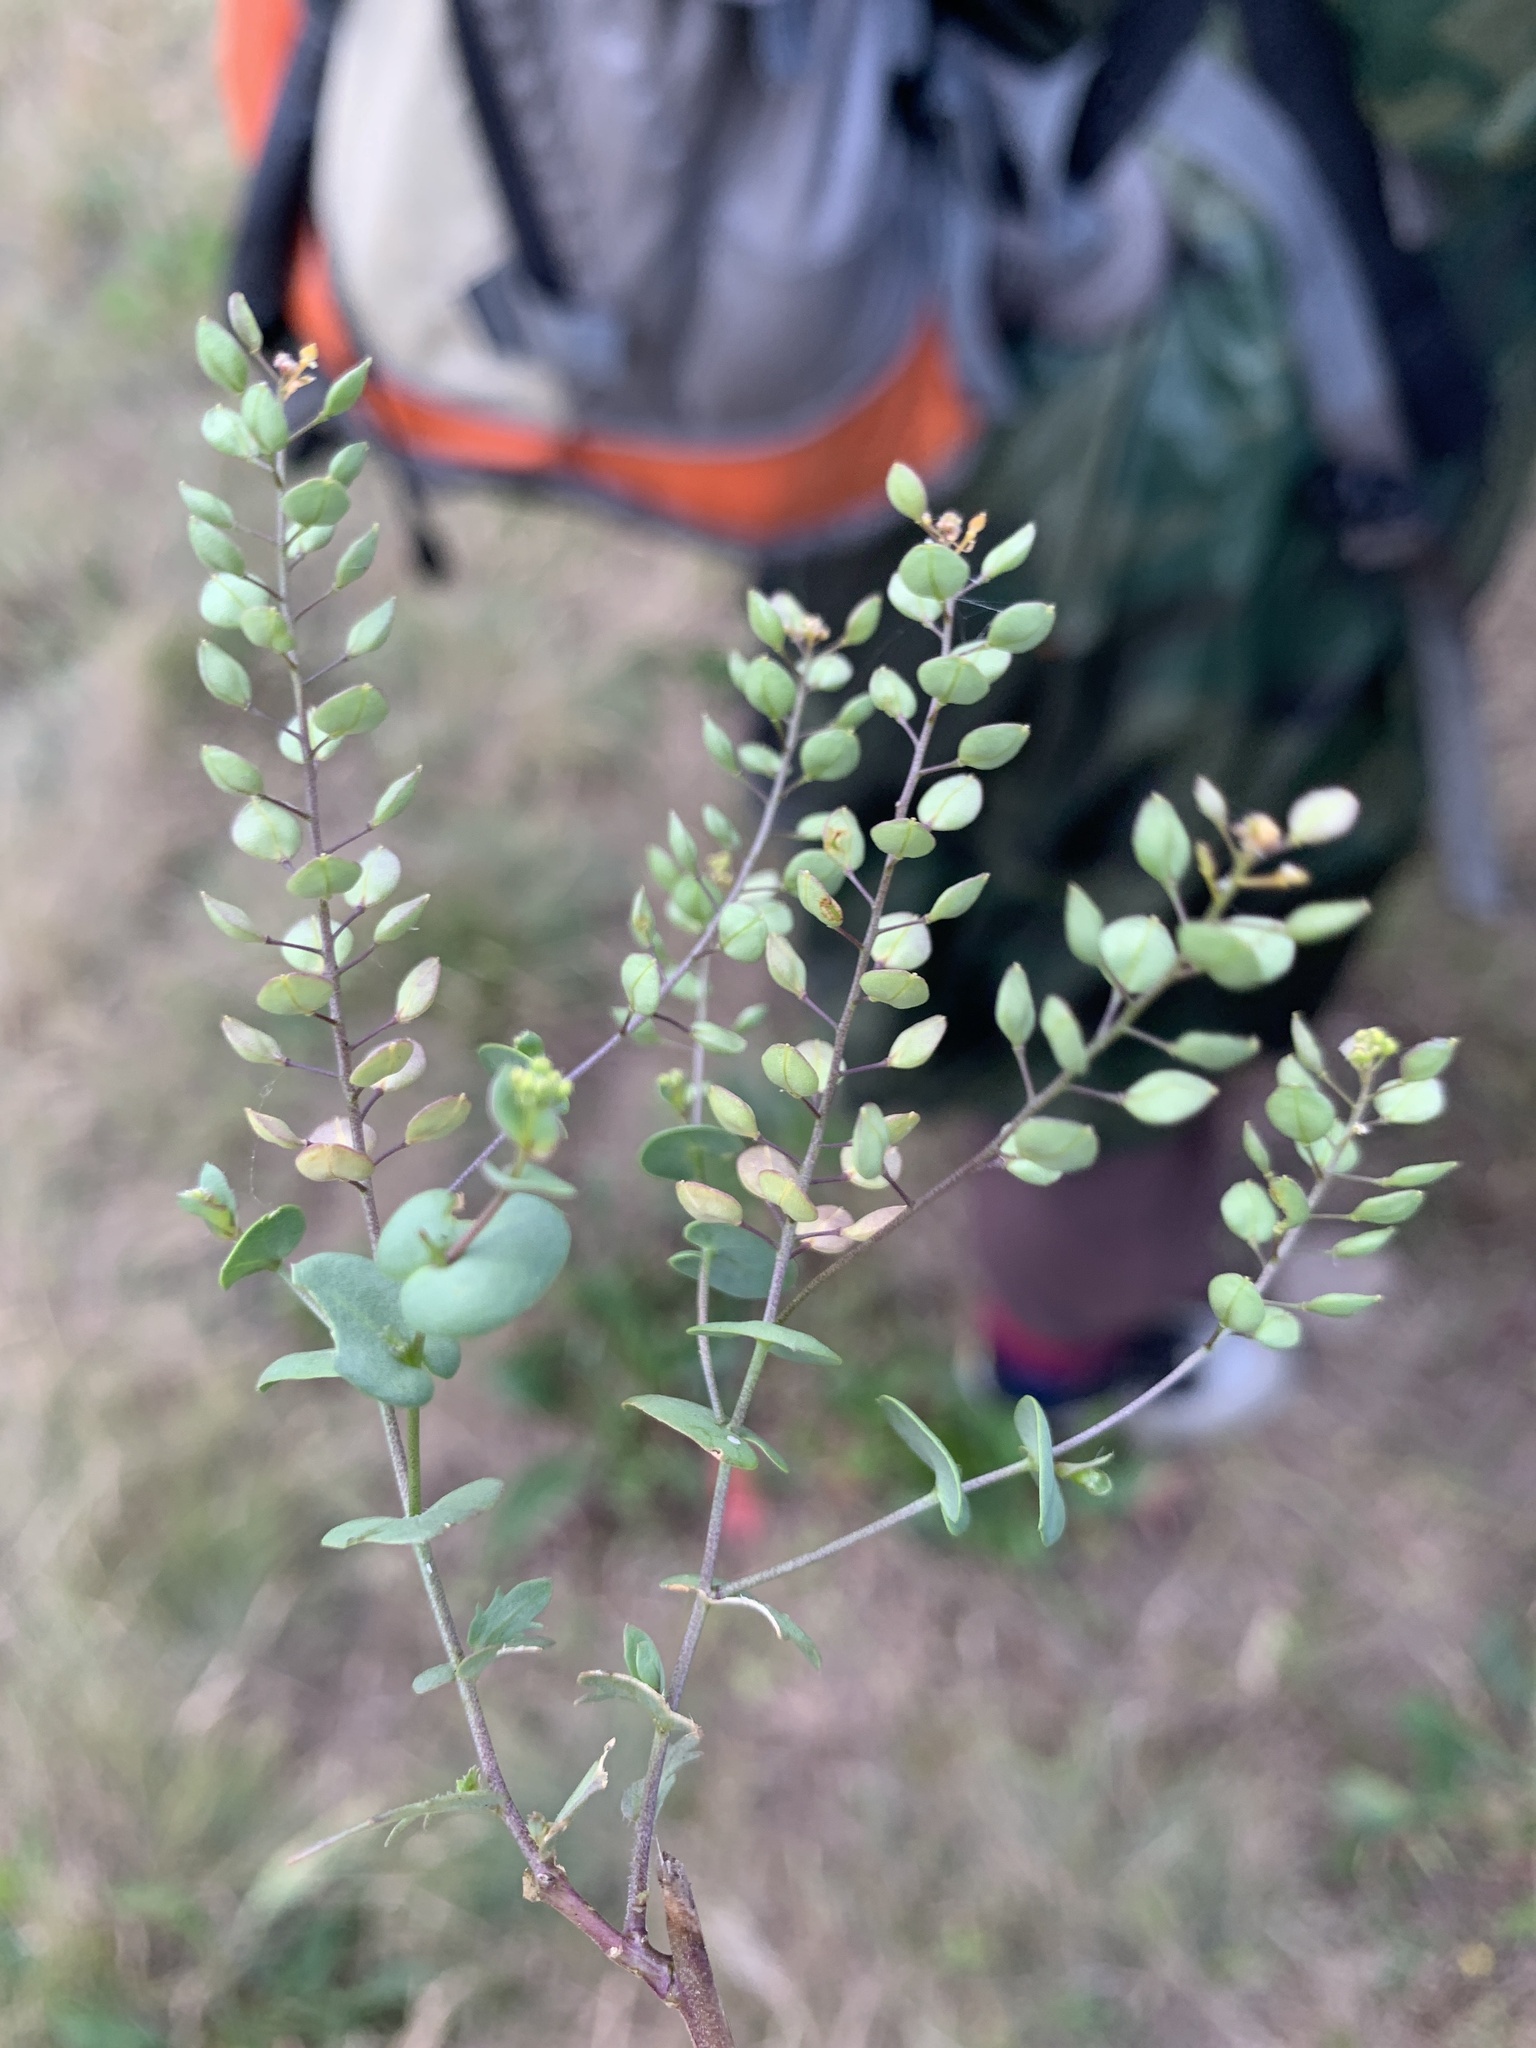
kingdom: Plantae
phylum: Tracheophyta
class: Magnoliopsida
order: Brassicales
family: Brassicaceae
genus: Lepidium
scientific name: Lepidium perfoliatum
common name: Perfoliate pepperwort
